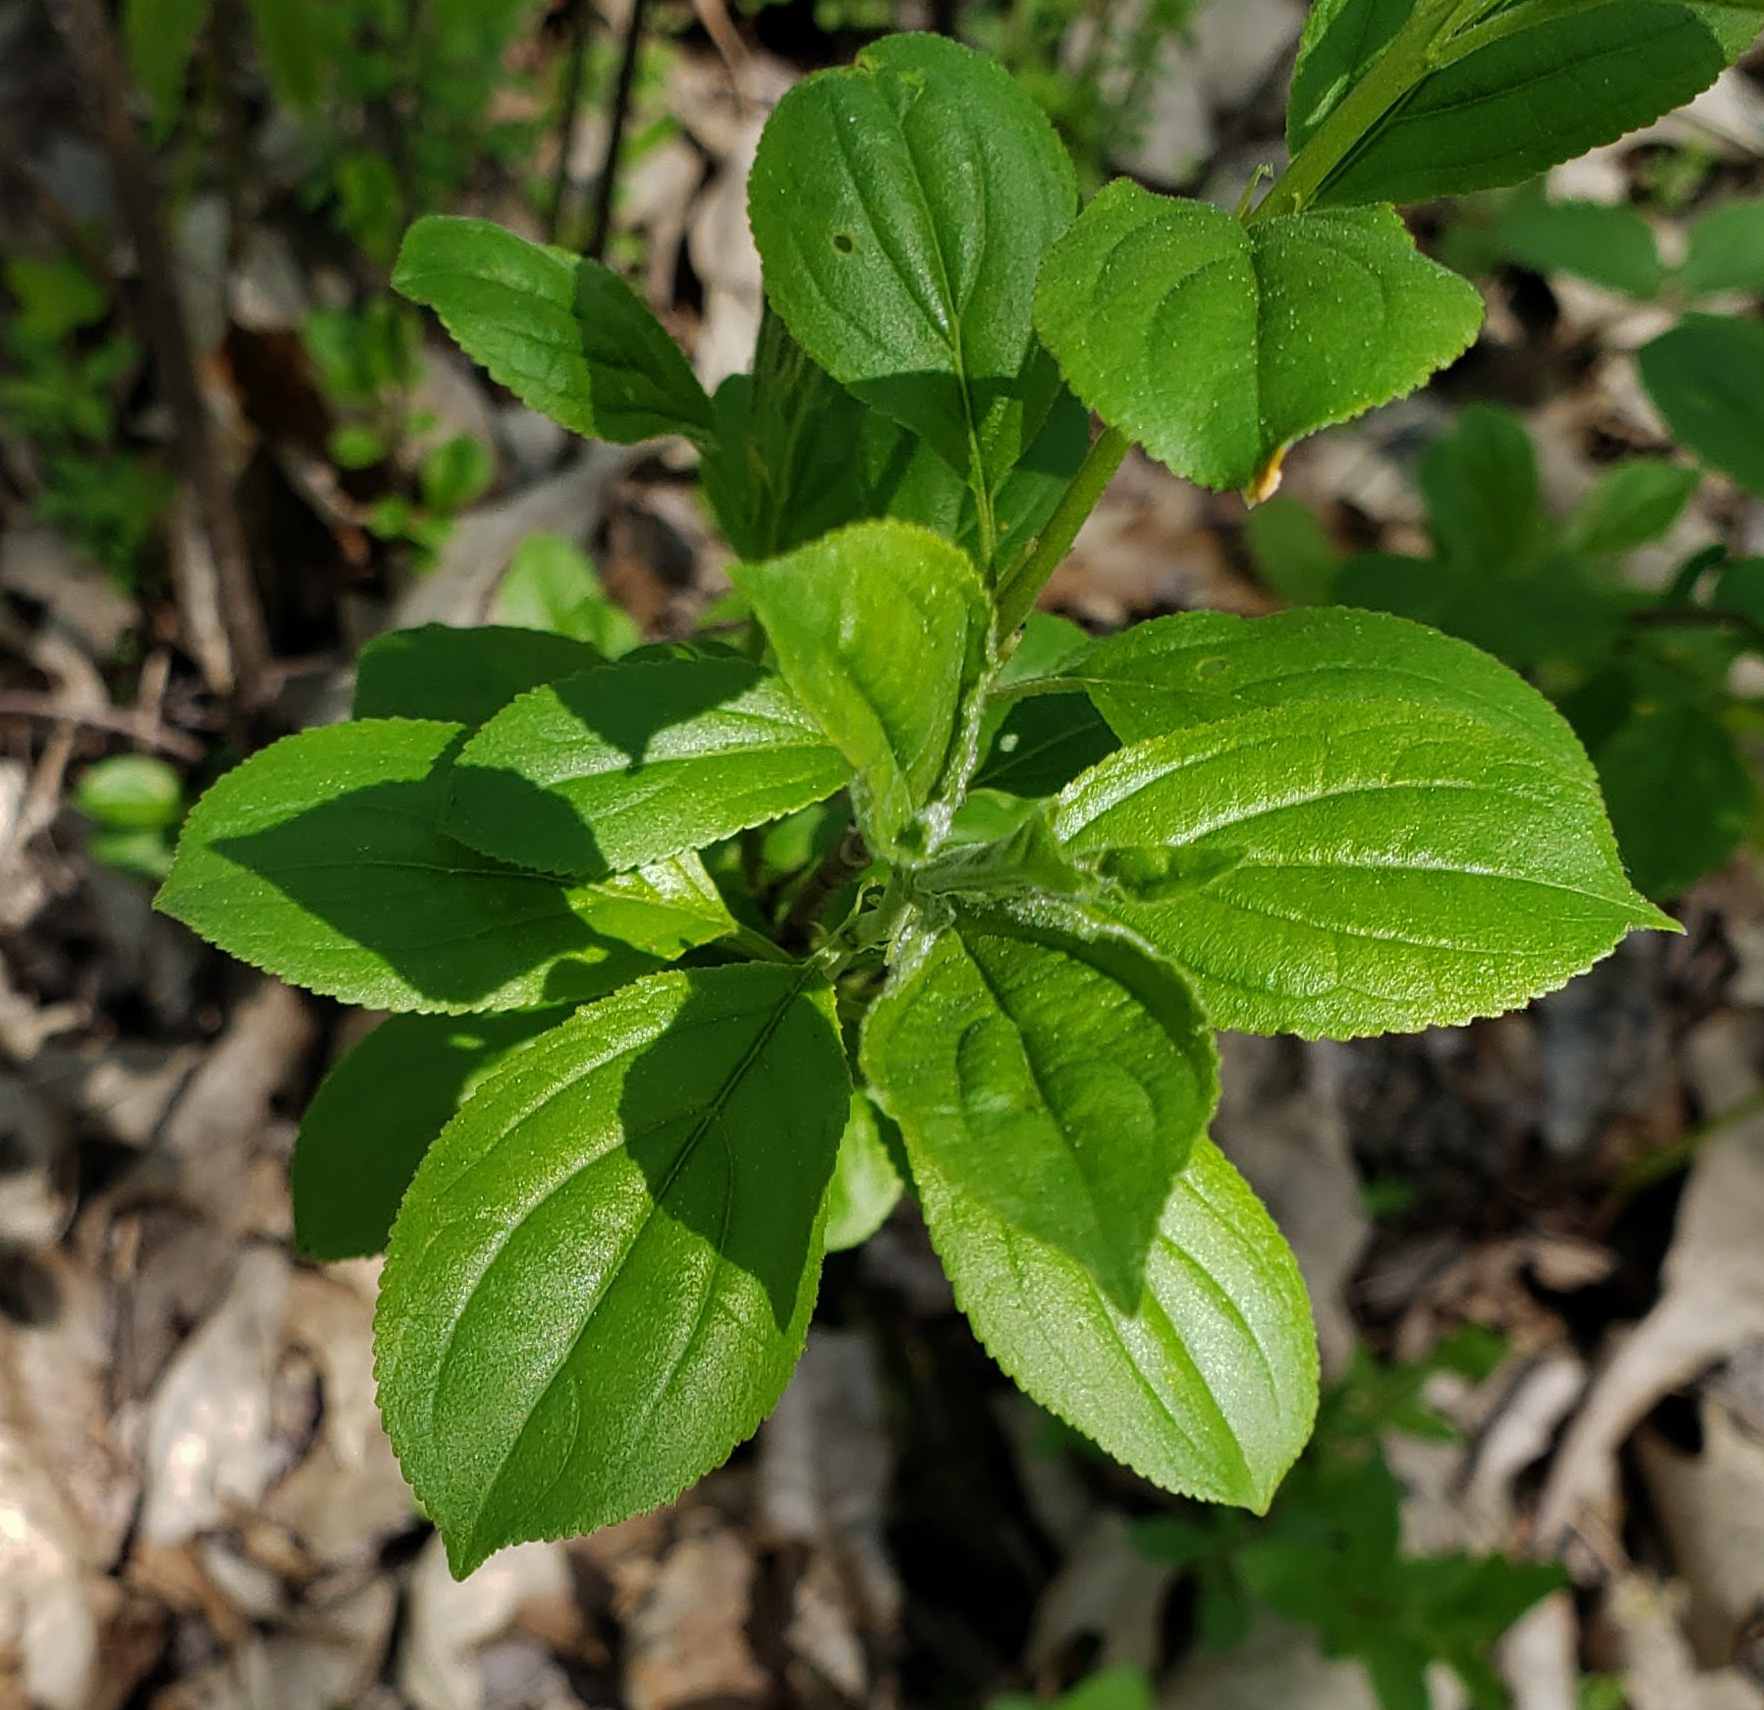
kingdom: Plantae
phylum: Tracheophyta
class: Magnoliopsida
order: Rosales
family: Rhamnaceae
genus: Rhamnus
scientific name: Rhamnus cathartica
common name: Common buckthorn
